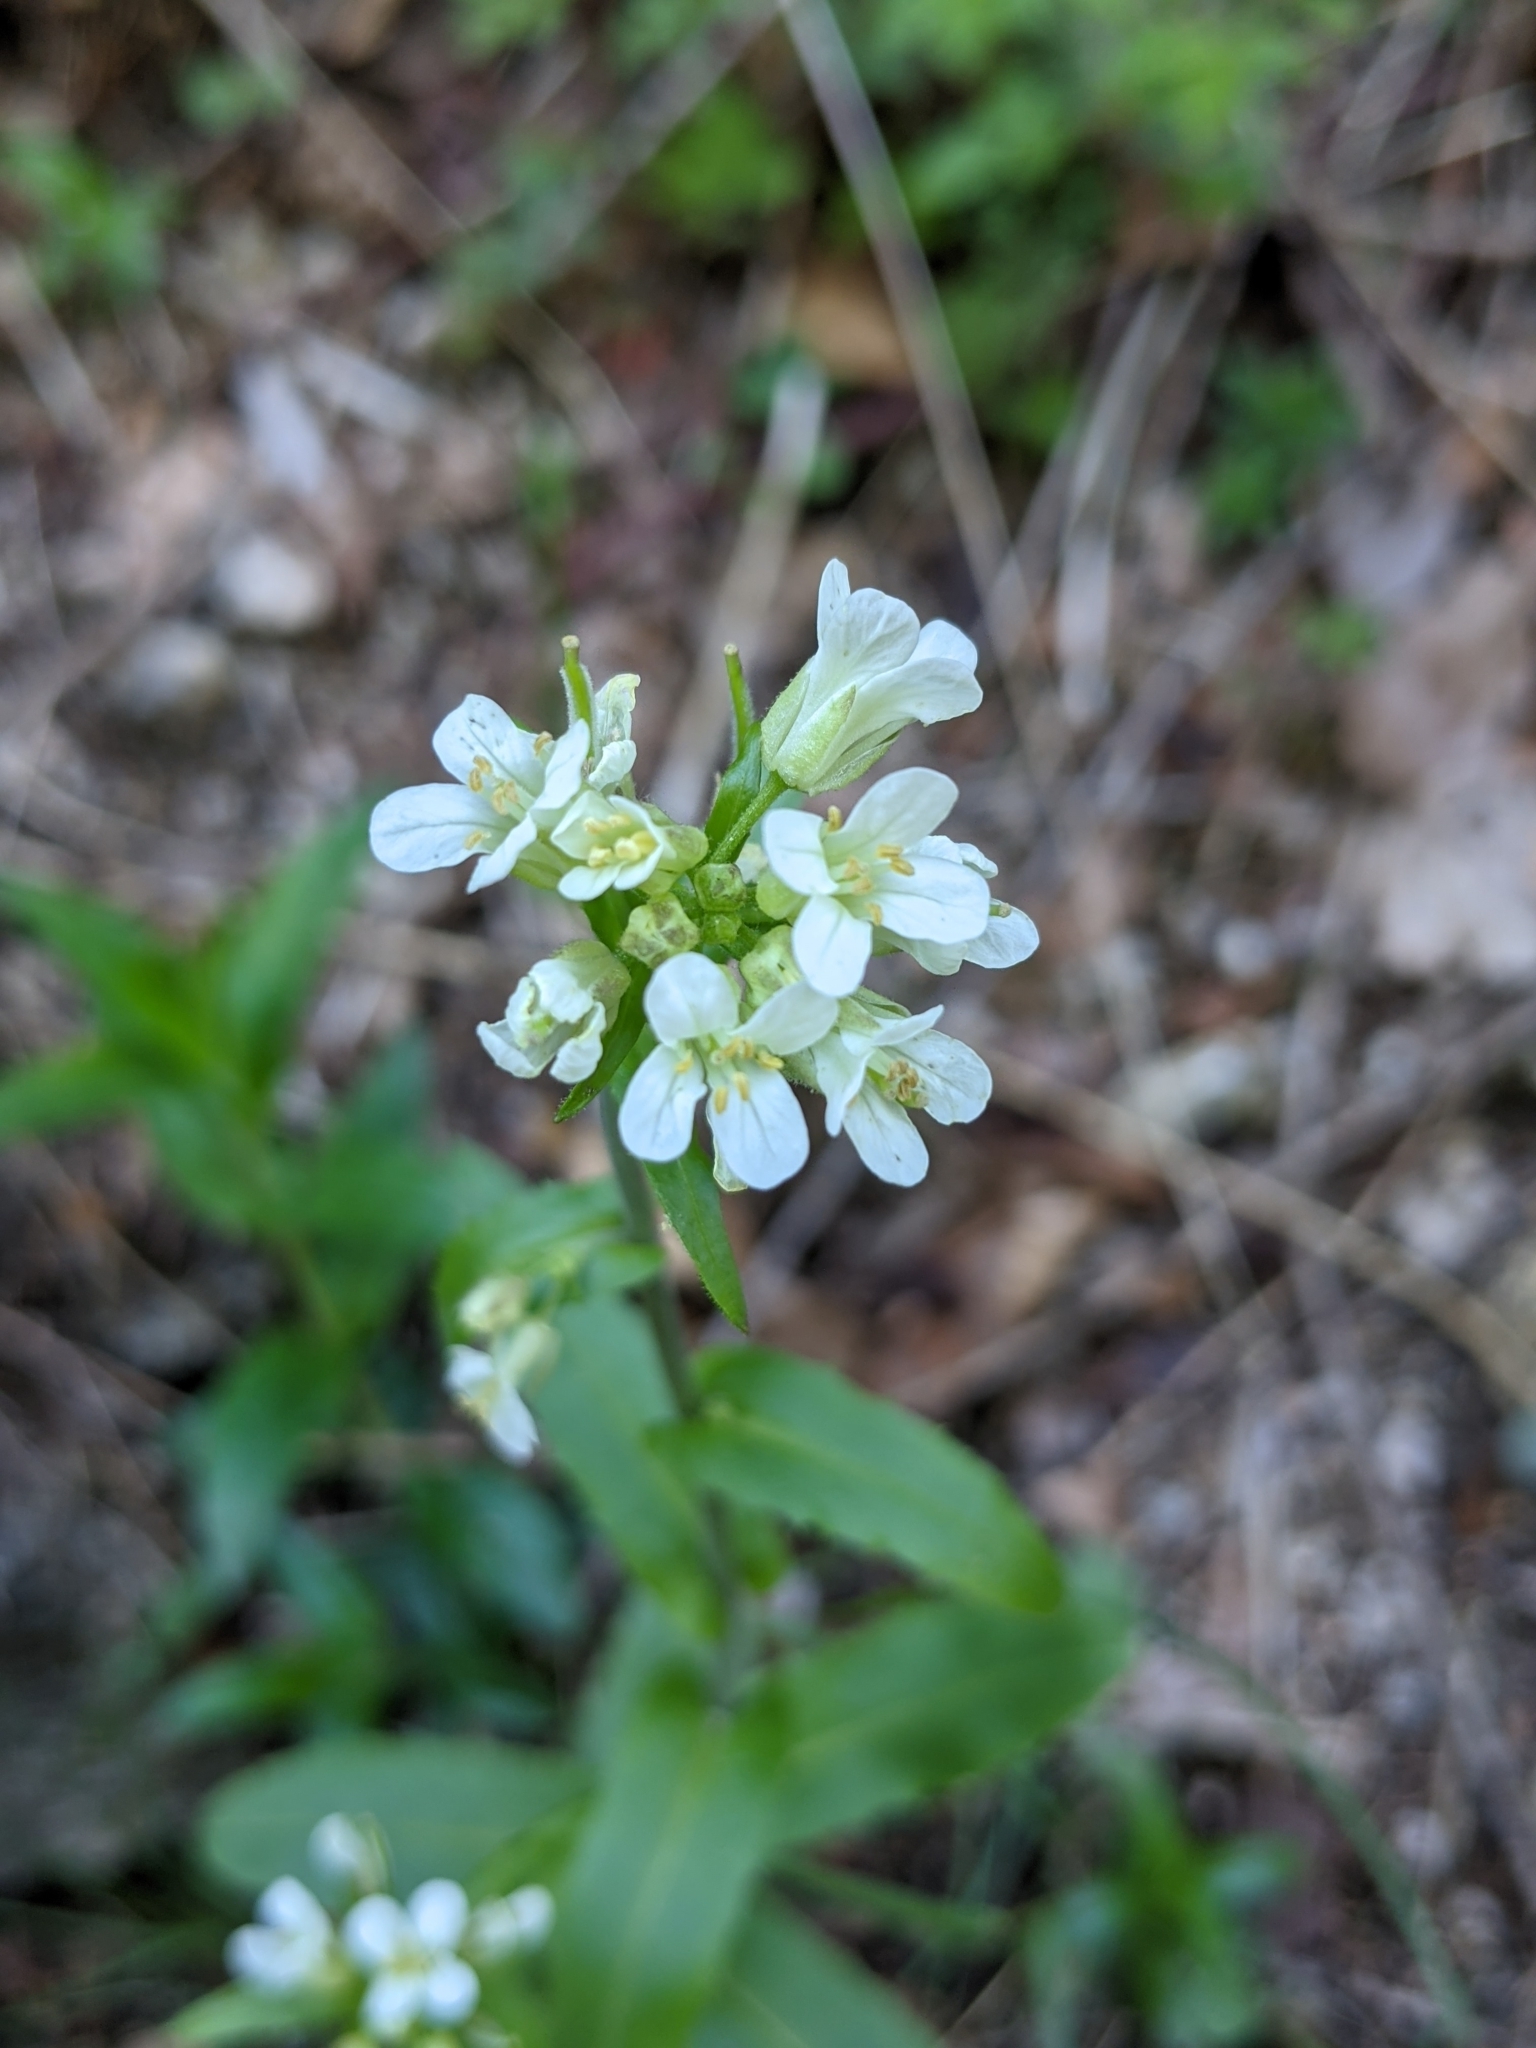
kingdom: Plantae
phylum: Tracheophyta
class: Magnoliopsida
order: Brassicales
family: Brassicaceae
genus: Pseudoturritis
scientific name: Pseudoturritis turrita
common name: Tower cress
